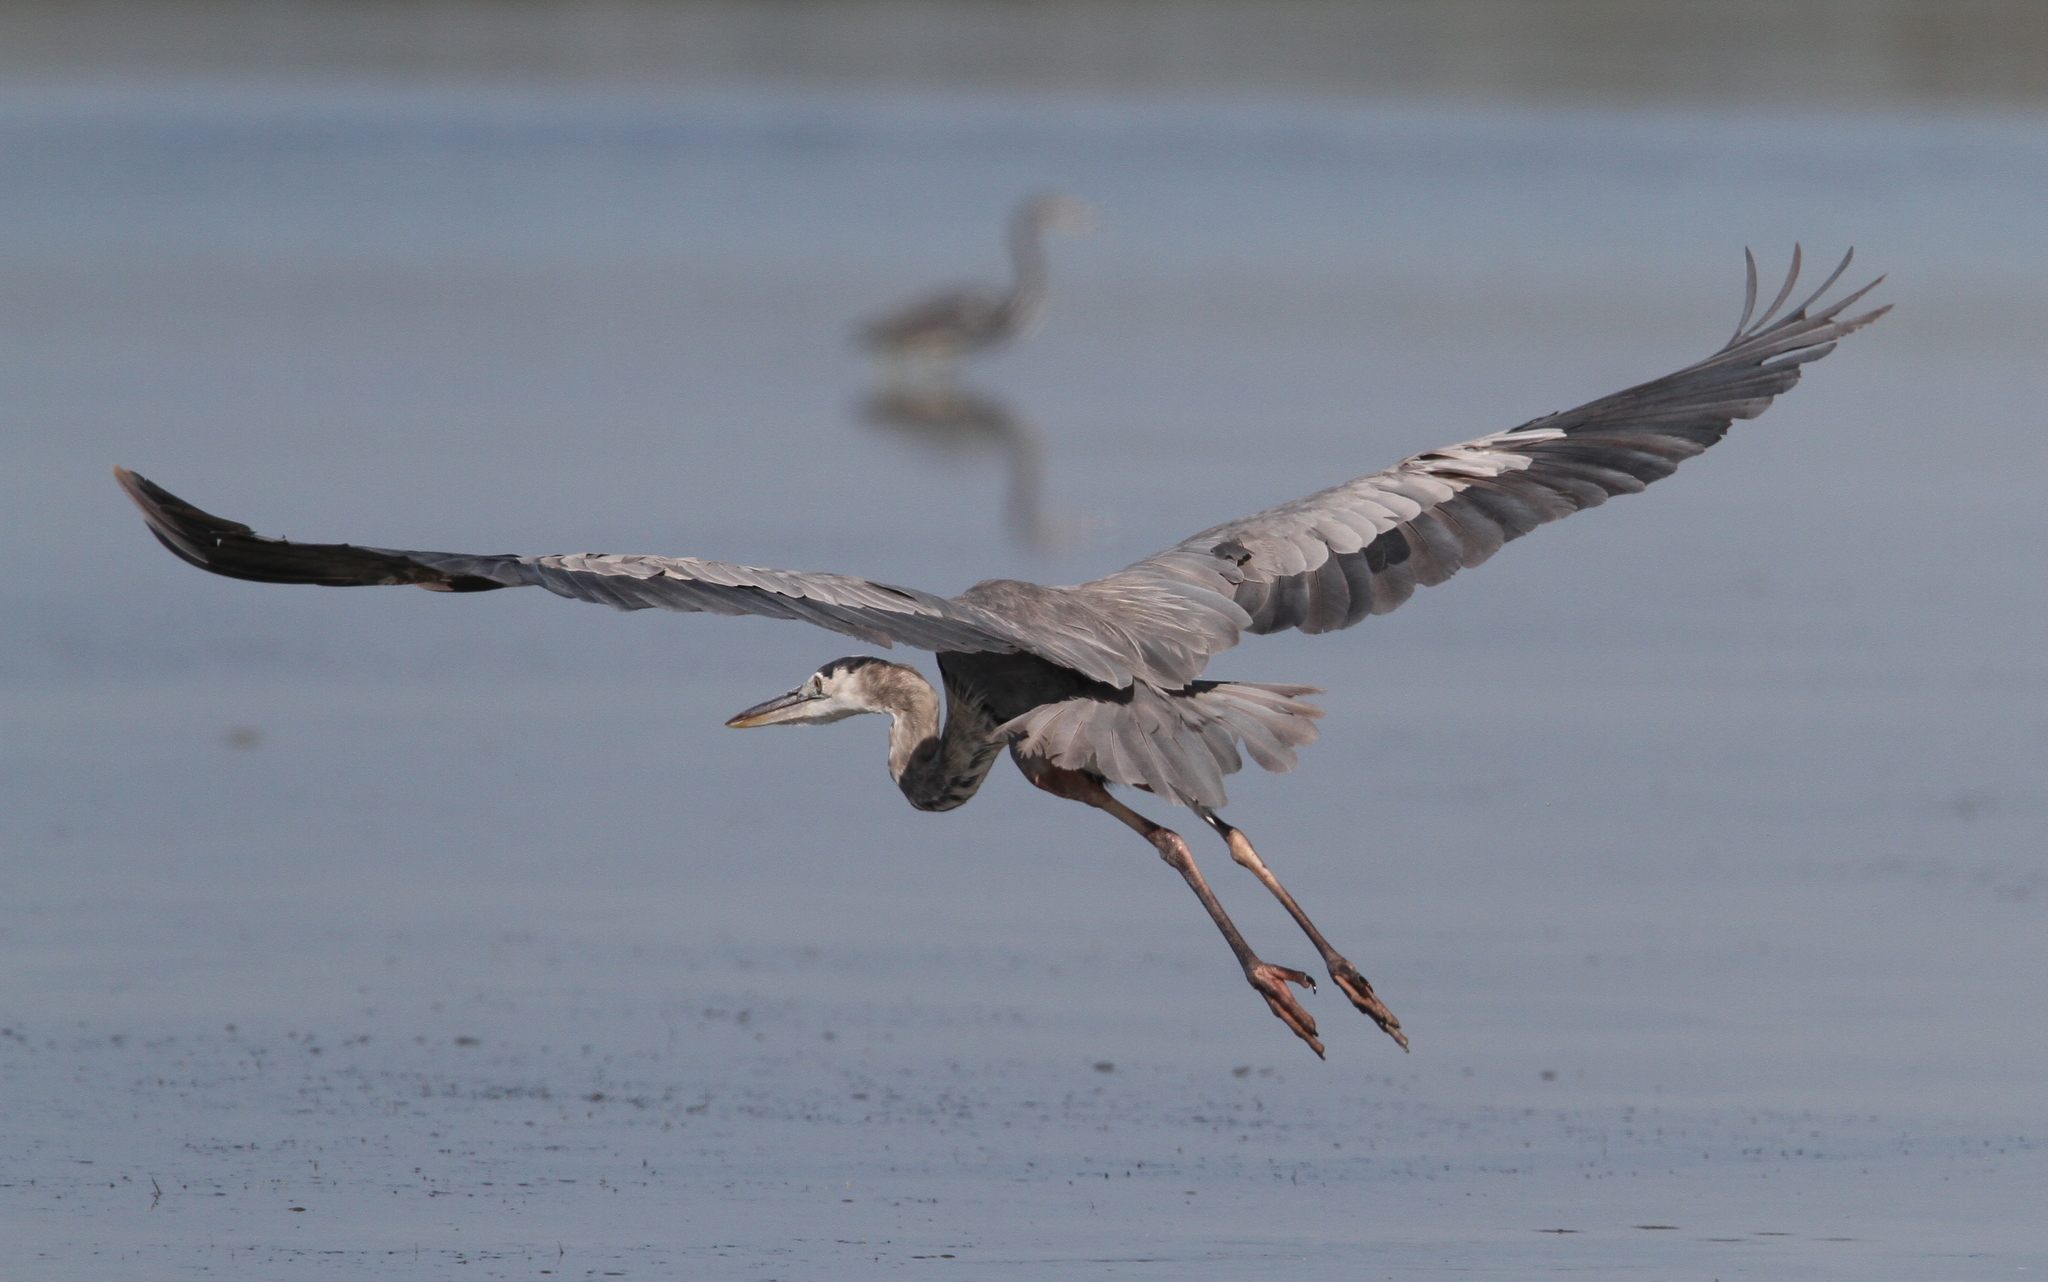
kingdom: Animalia
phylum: Chordata
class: Aves
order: Pelecaniformes
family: Ardeidae
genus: Ardea
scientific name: Ardea herodias
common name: Great blue heron
